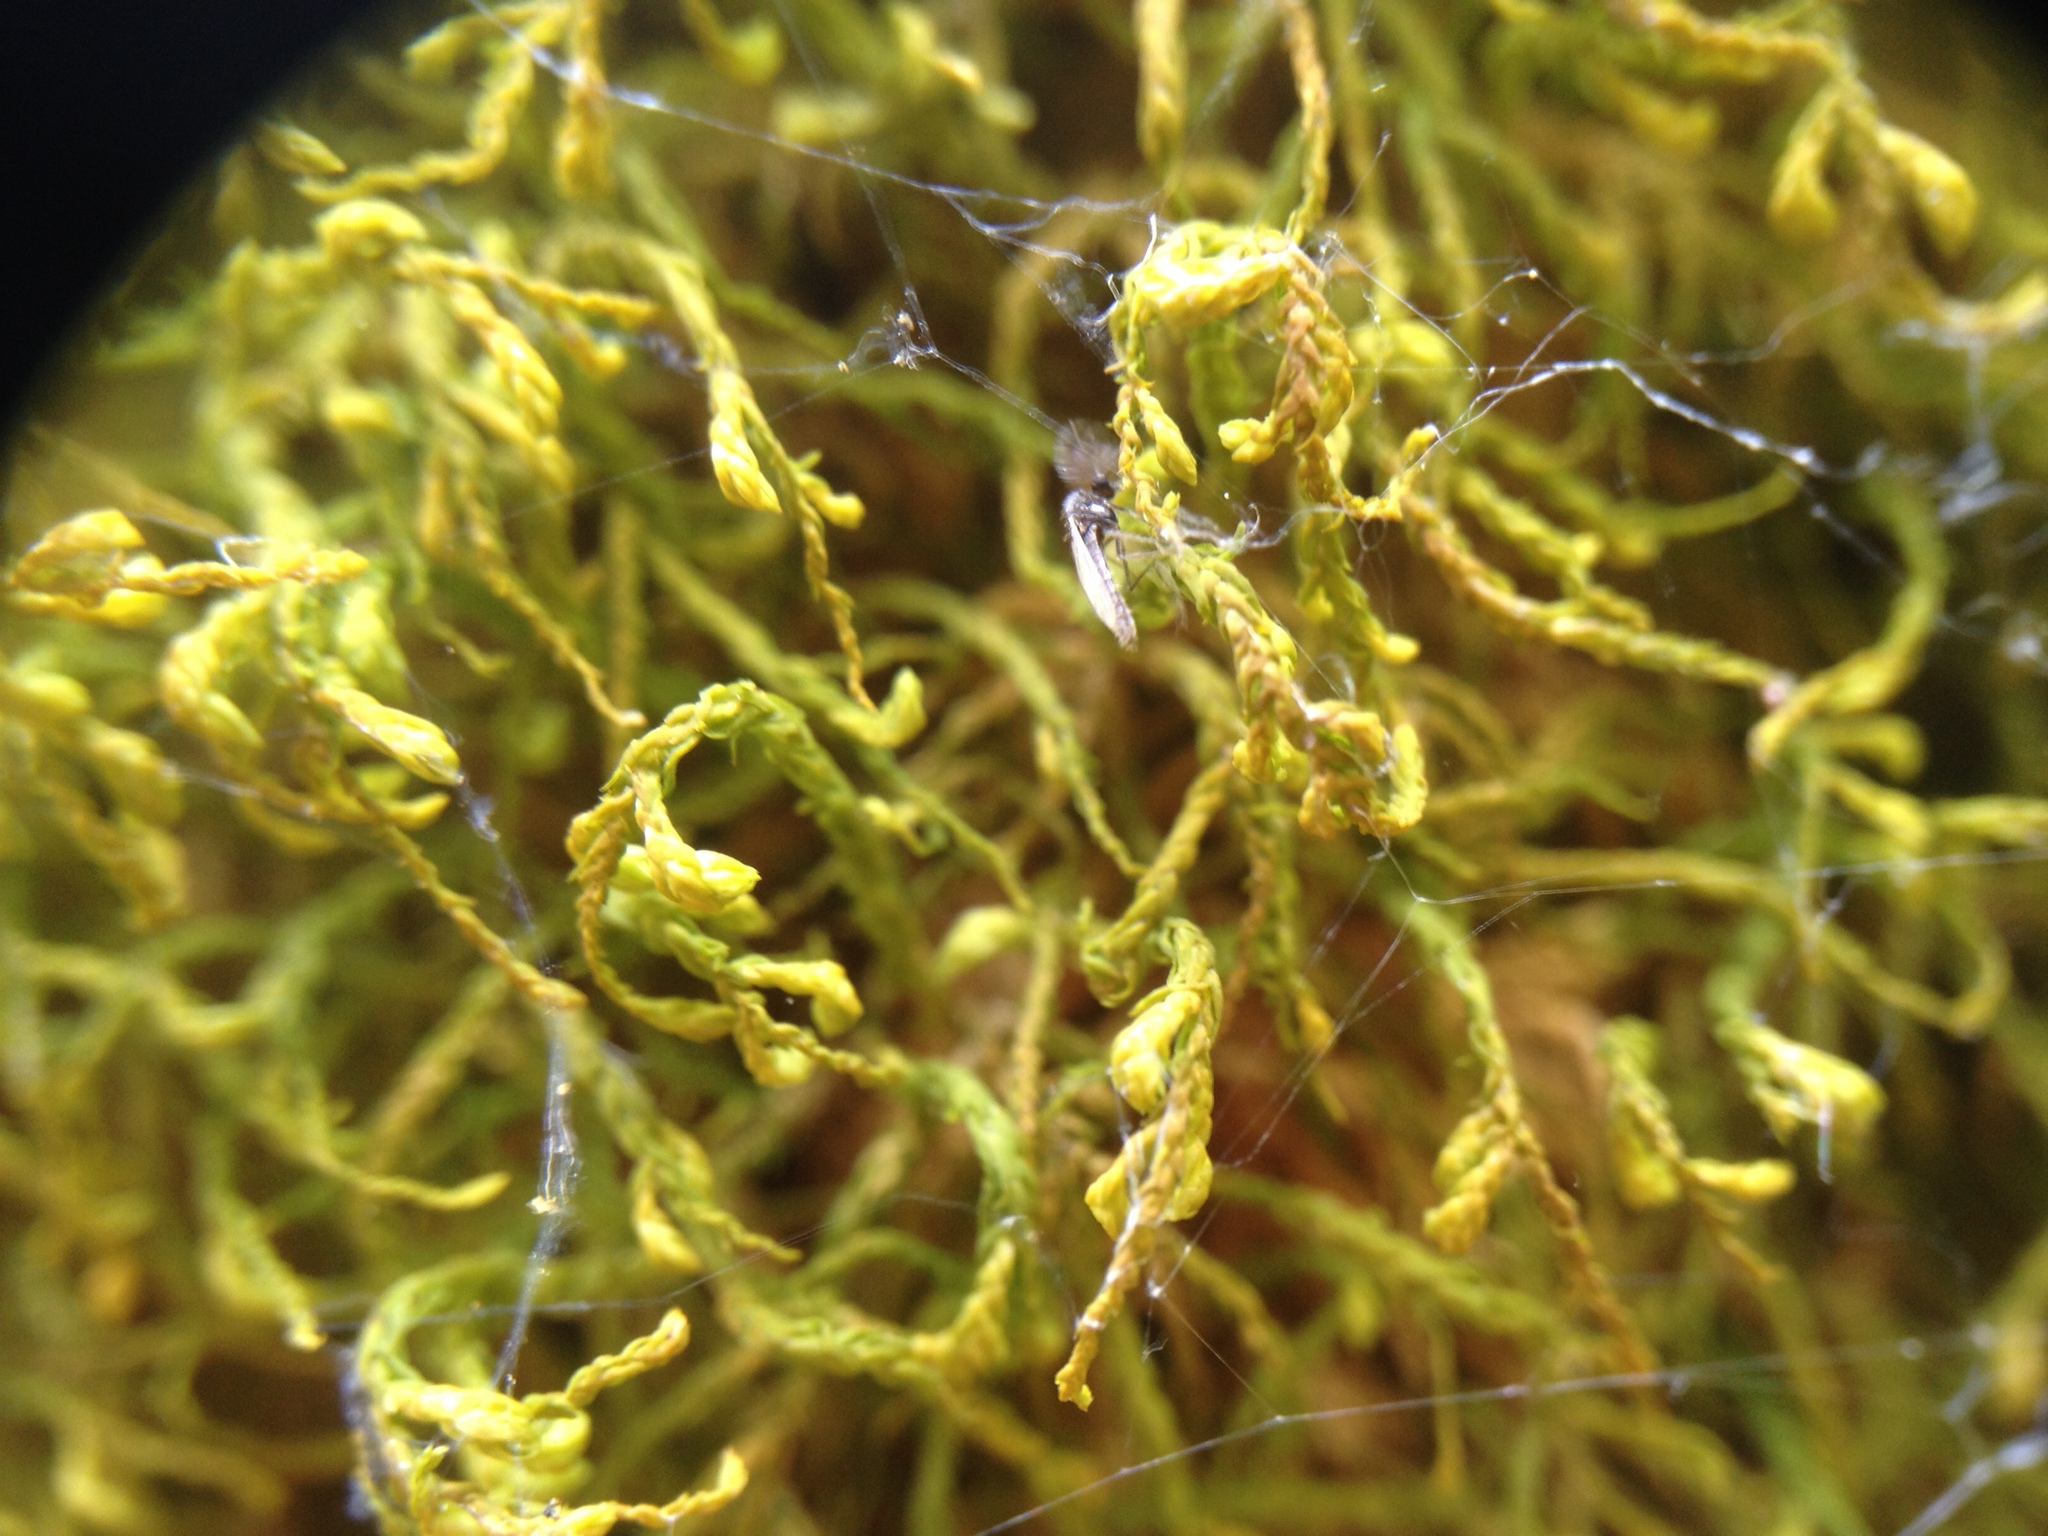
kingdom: Plantae
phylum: Bryophyta
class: Bryopsida
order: Hypnales
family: Neckeraceae
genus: Pseudanomodon
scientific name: Pseudanomodon attenuatus
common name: Tree-skirt moss
